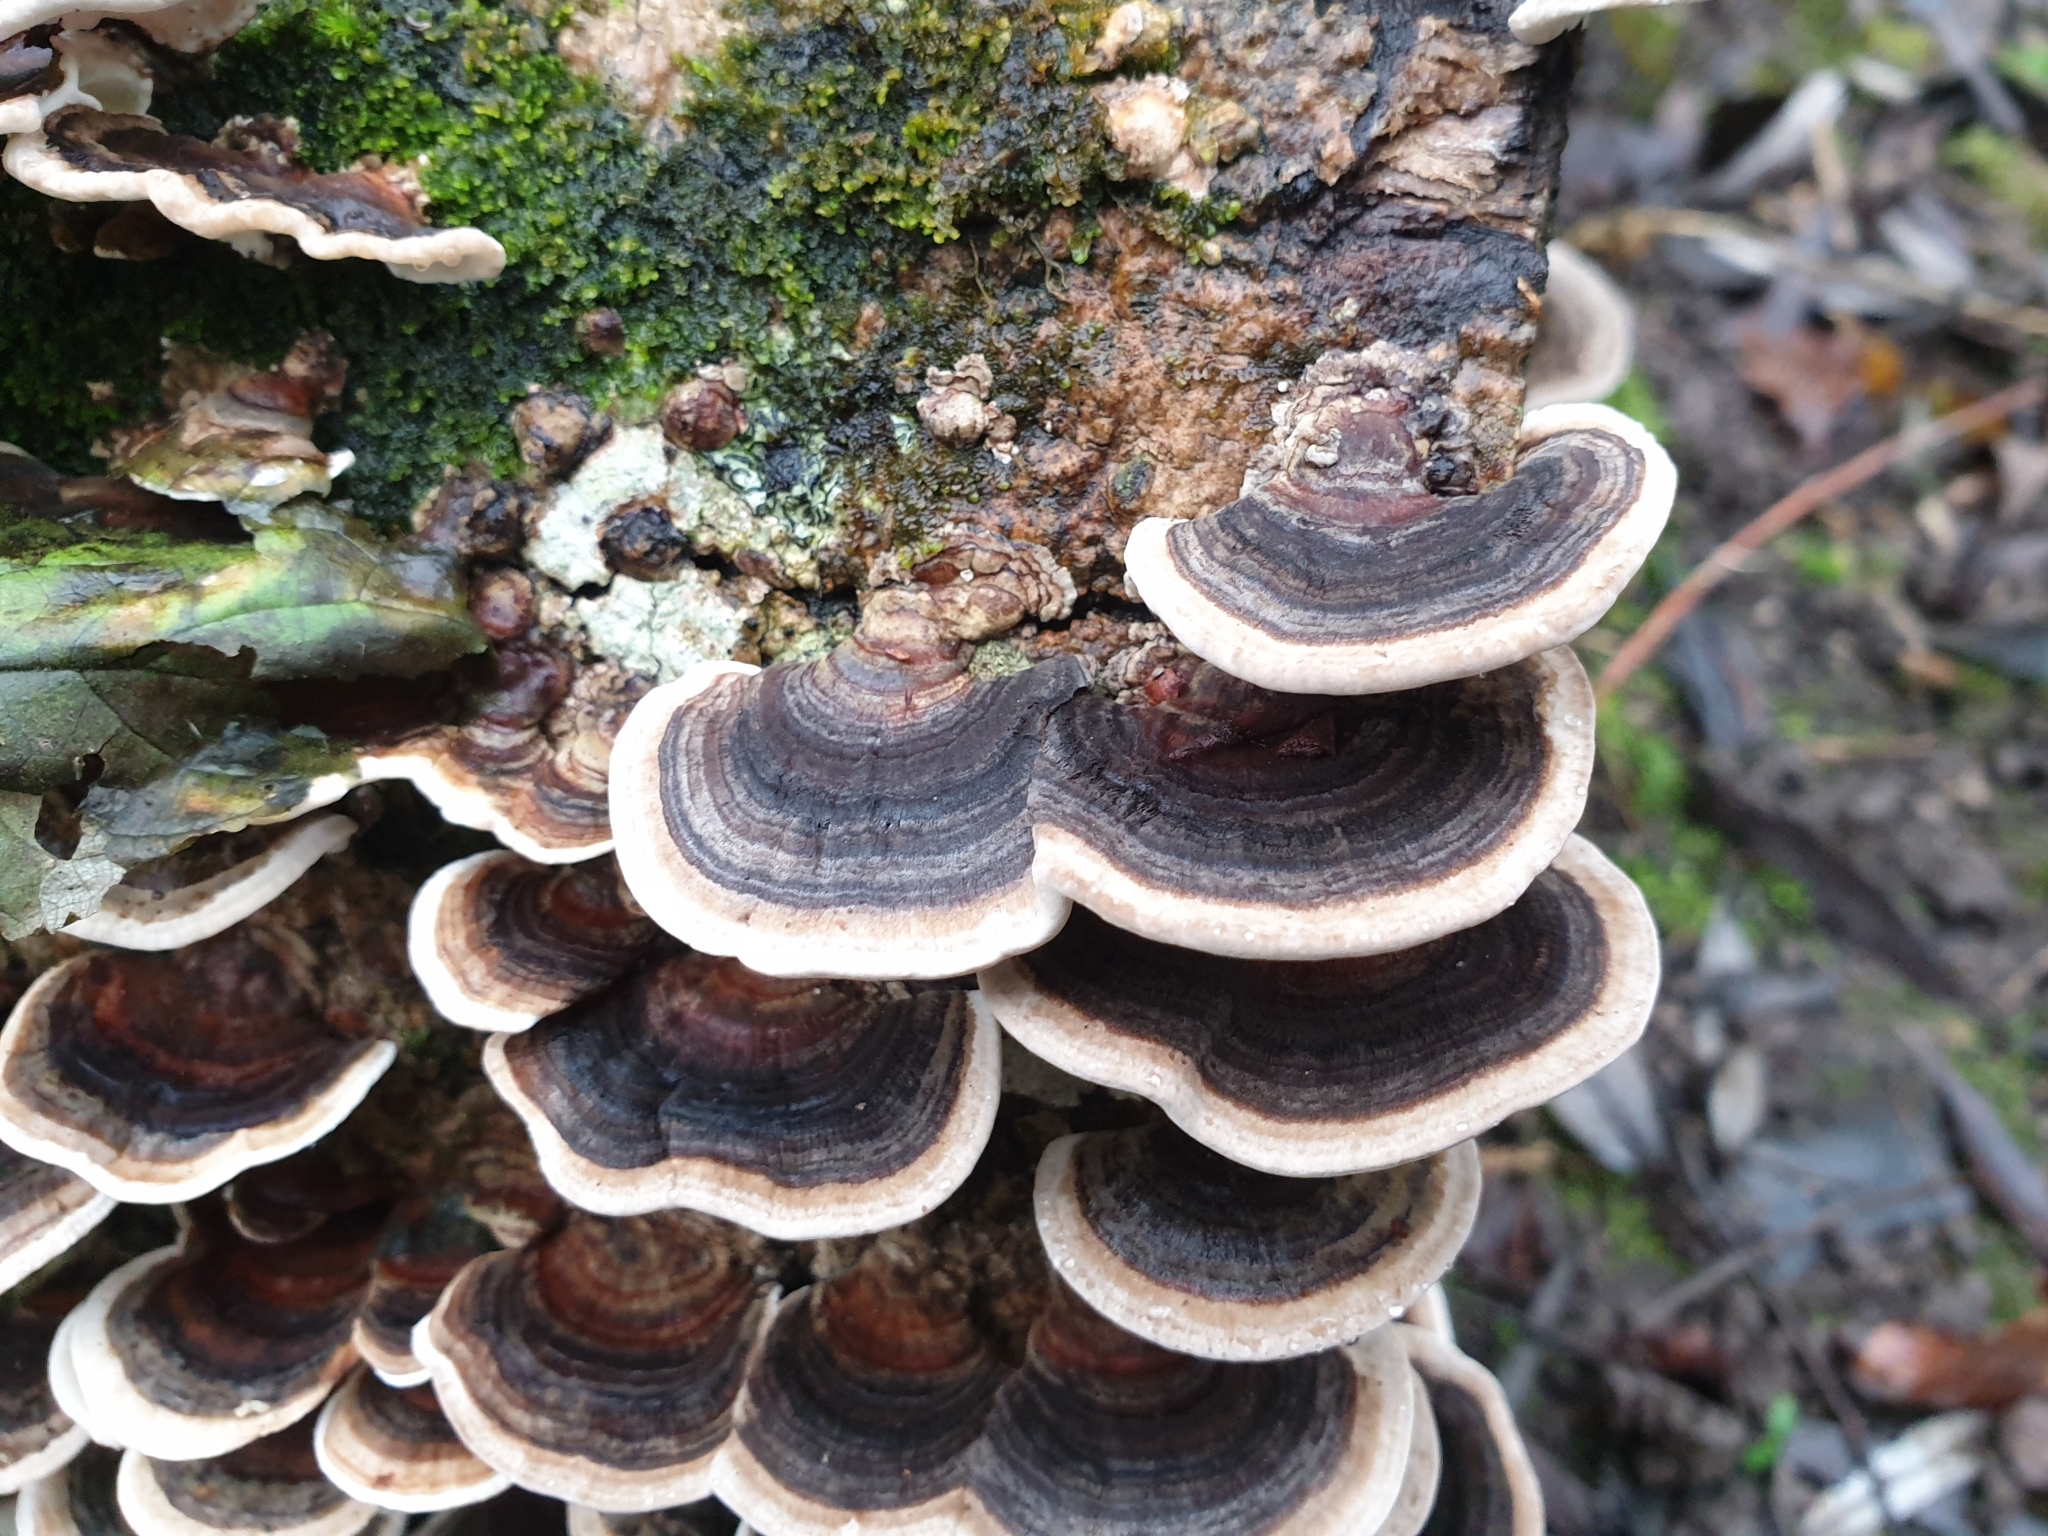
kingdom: Fungi
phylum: Basidiomycota
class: Agaricomycetes
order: Polyporales
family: Polyporaceae
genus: Trametes
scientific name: Trametes versicolor
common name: Turkeytail
